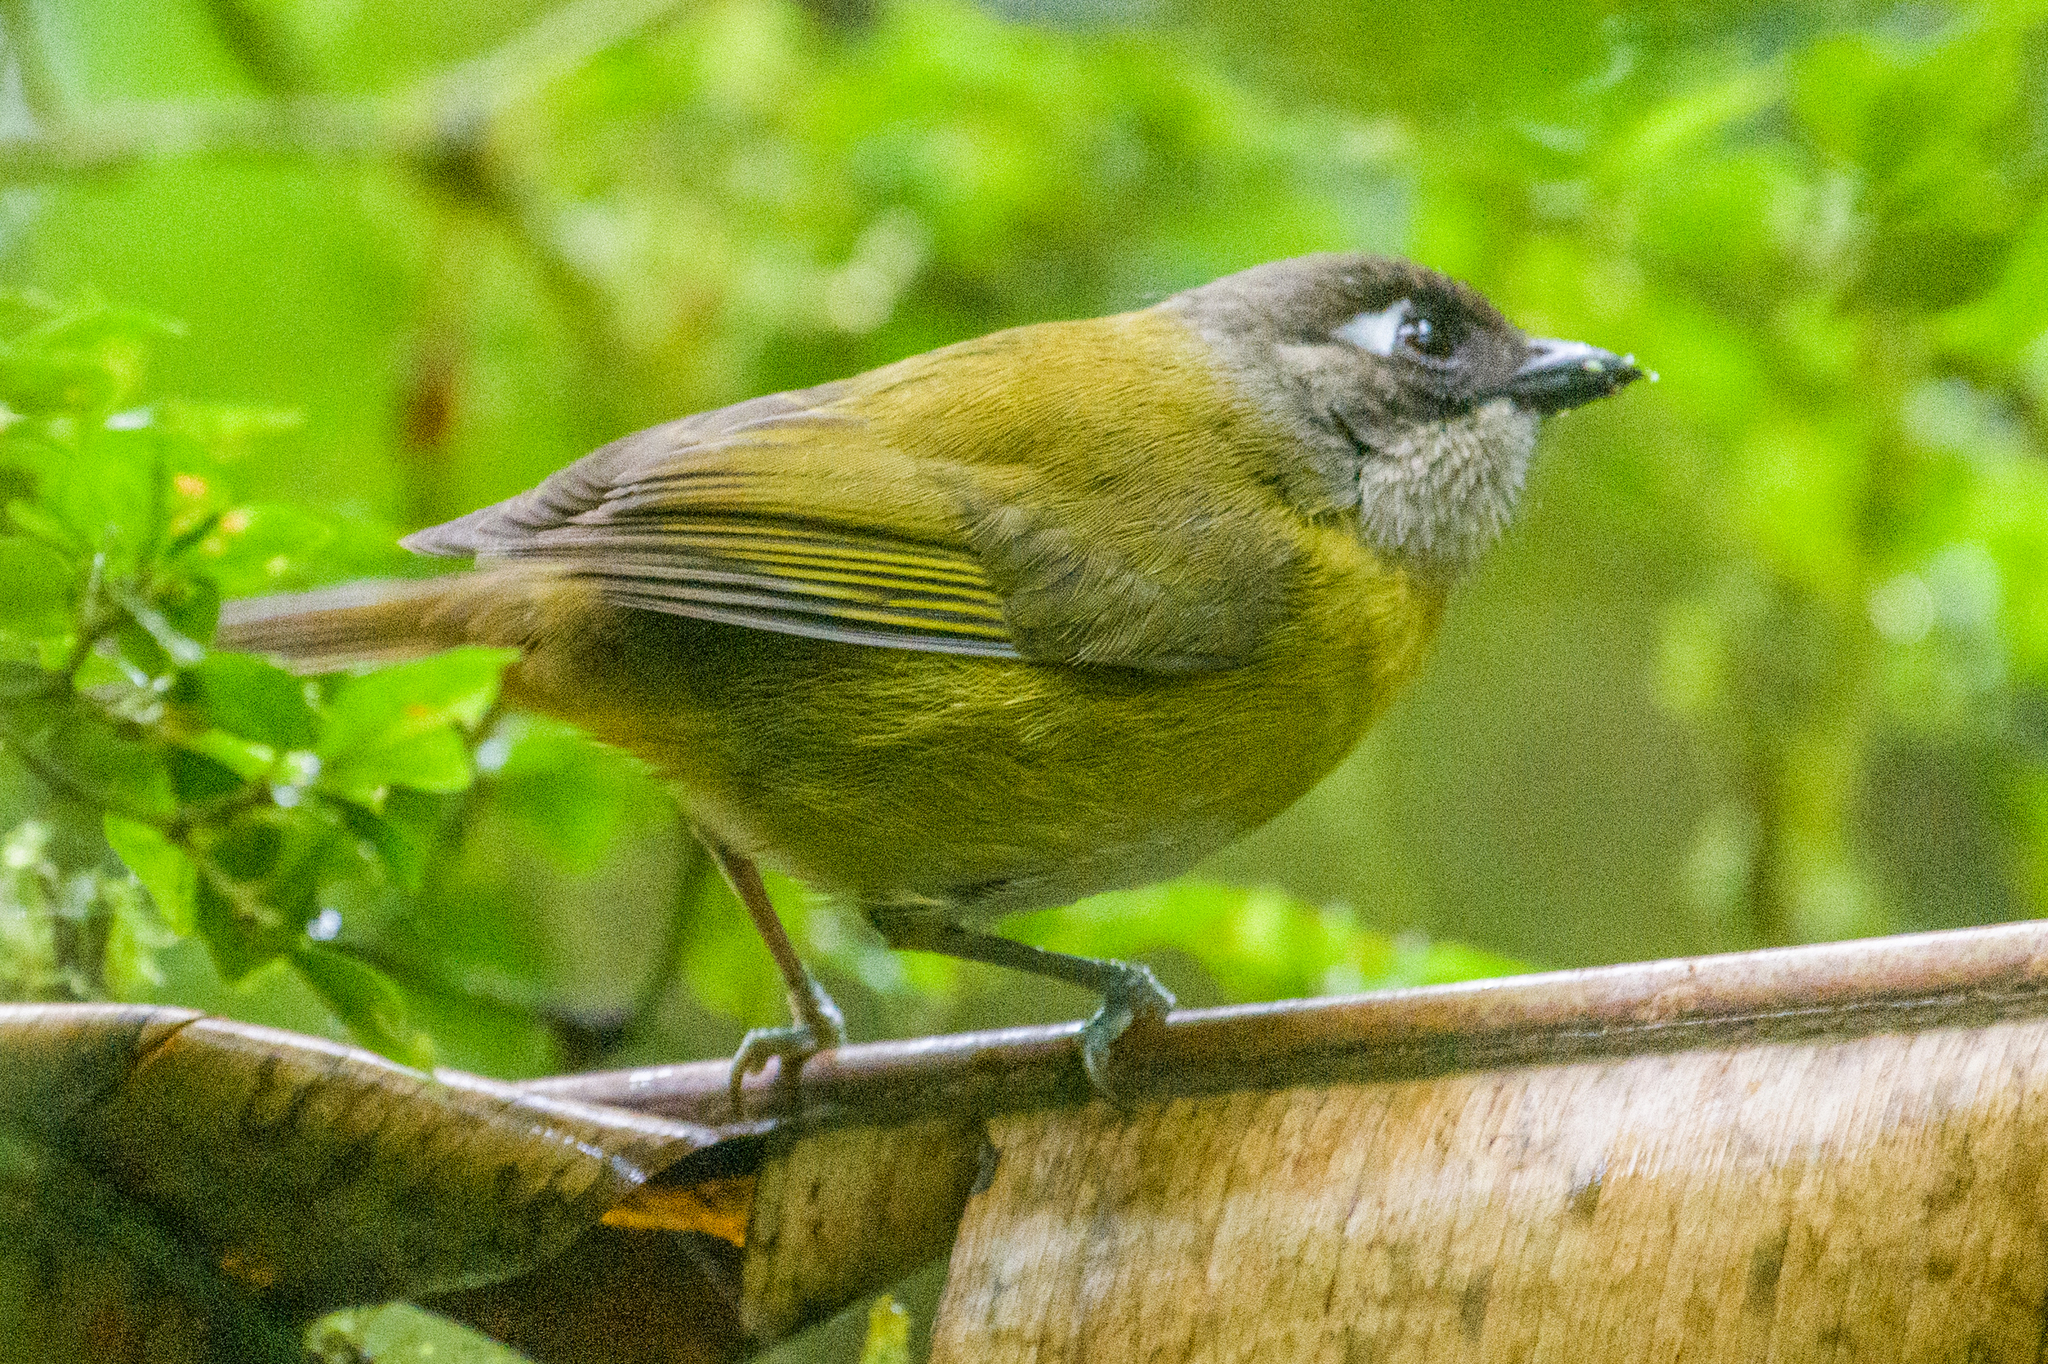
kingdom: Animalia
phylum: Chordata
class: Aves
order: Passeriformes
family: Passerellidae
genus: Chlorospingus
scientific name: Chlorospingus flavopectus
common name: Common chlorospingus
